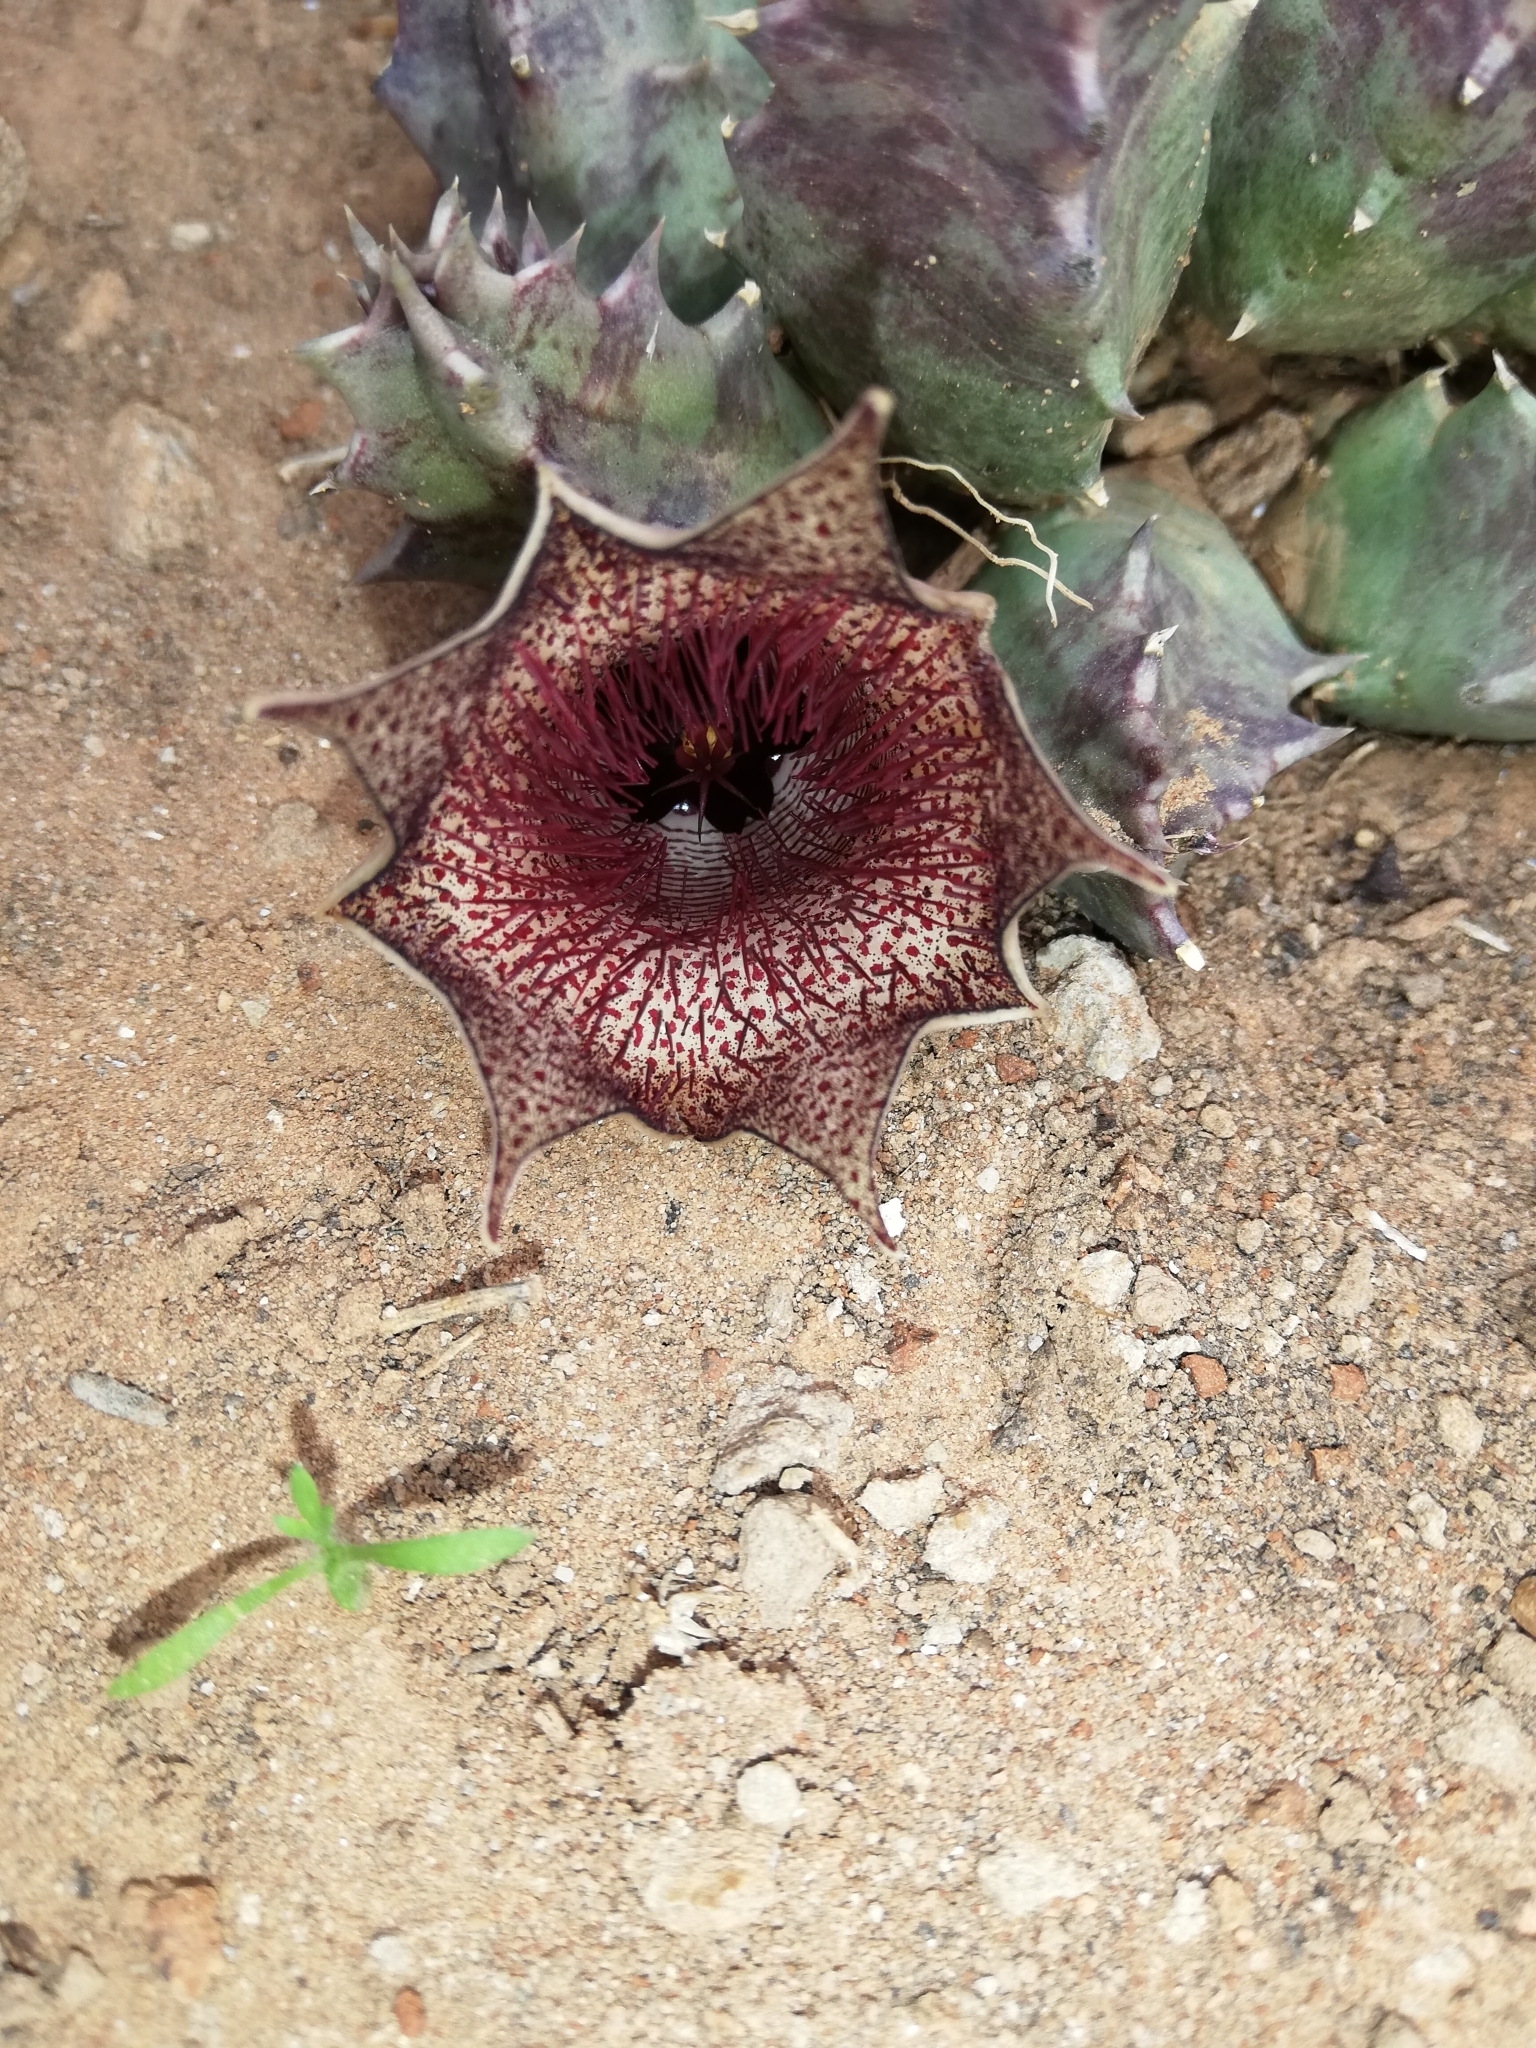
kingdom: Plantae
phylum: Tracheophyta
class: Magnoliopsida
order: Gentianales
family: Apocynaceae
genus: Ceropegia
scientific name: Ceropegia clavigera
